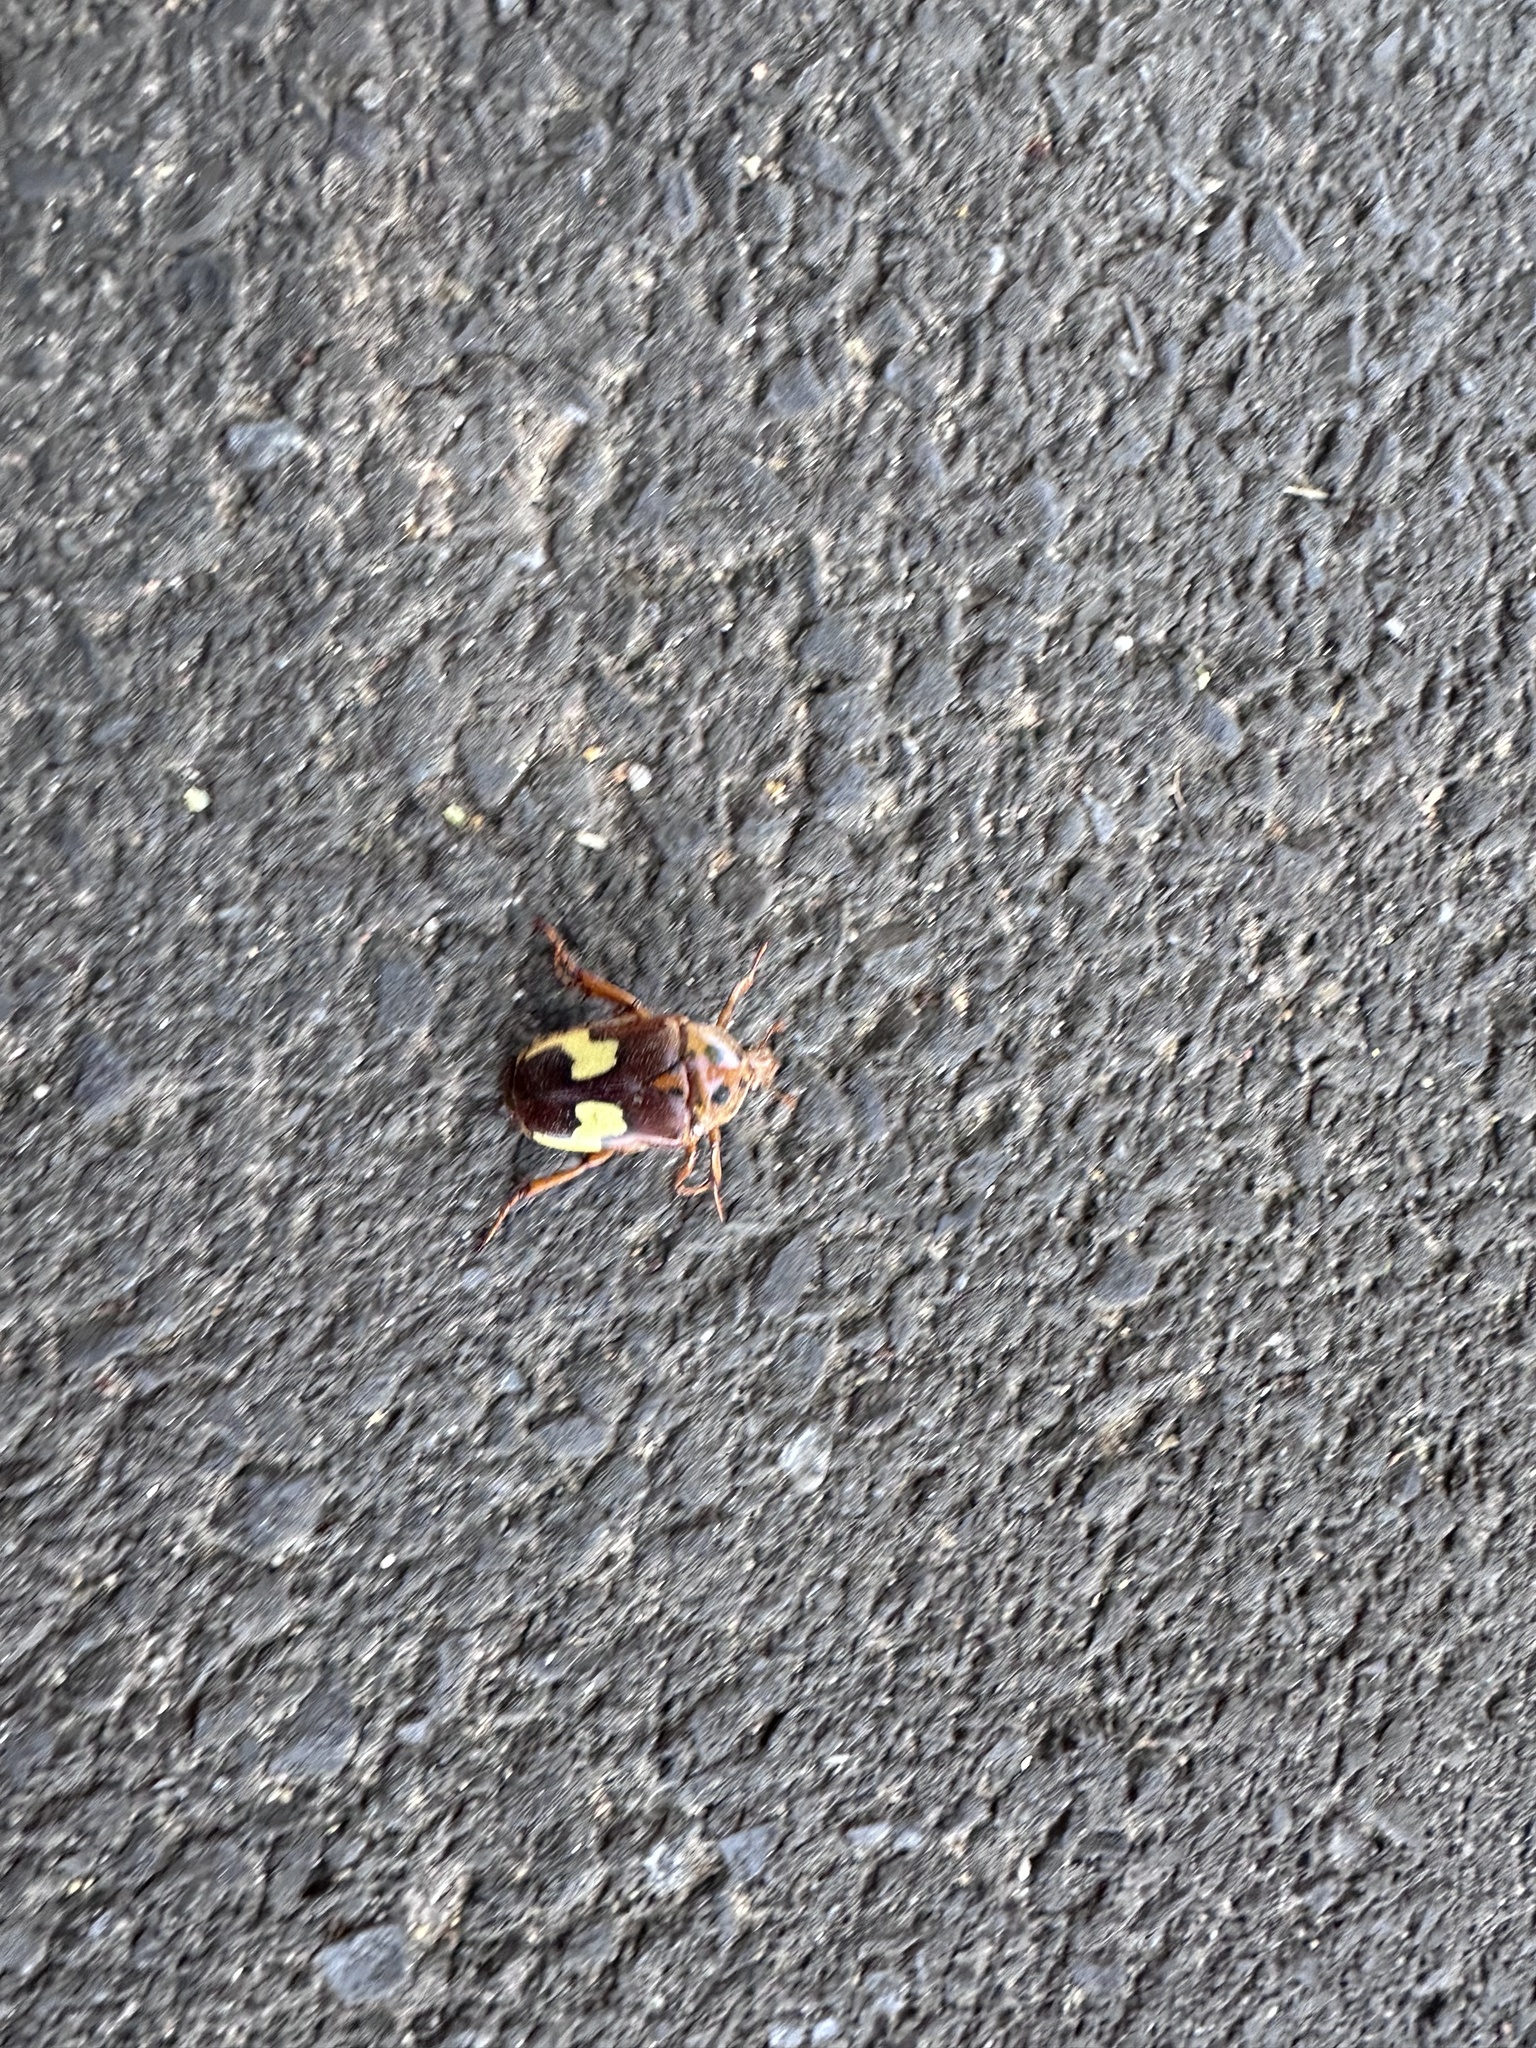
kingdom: Animalia
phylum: Arthropoda
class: Insecta
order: Coleoptera
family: Scarabaeidae
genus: Anisorrhina
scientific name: Anisorrhina flavomaculata
